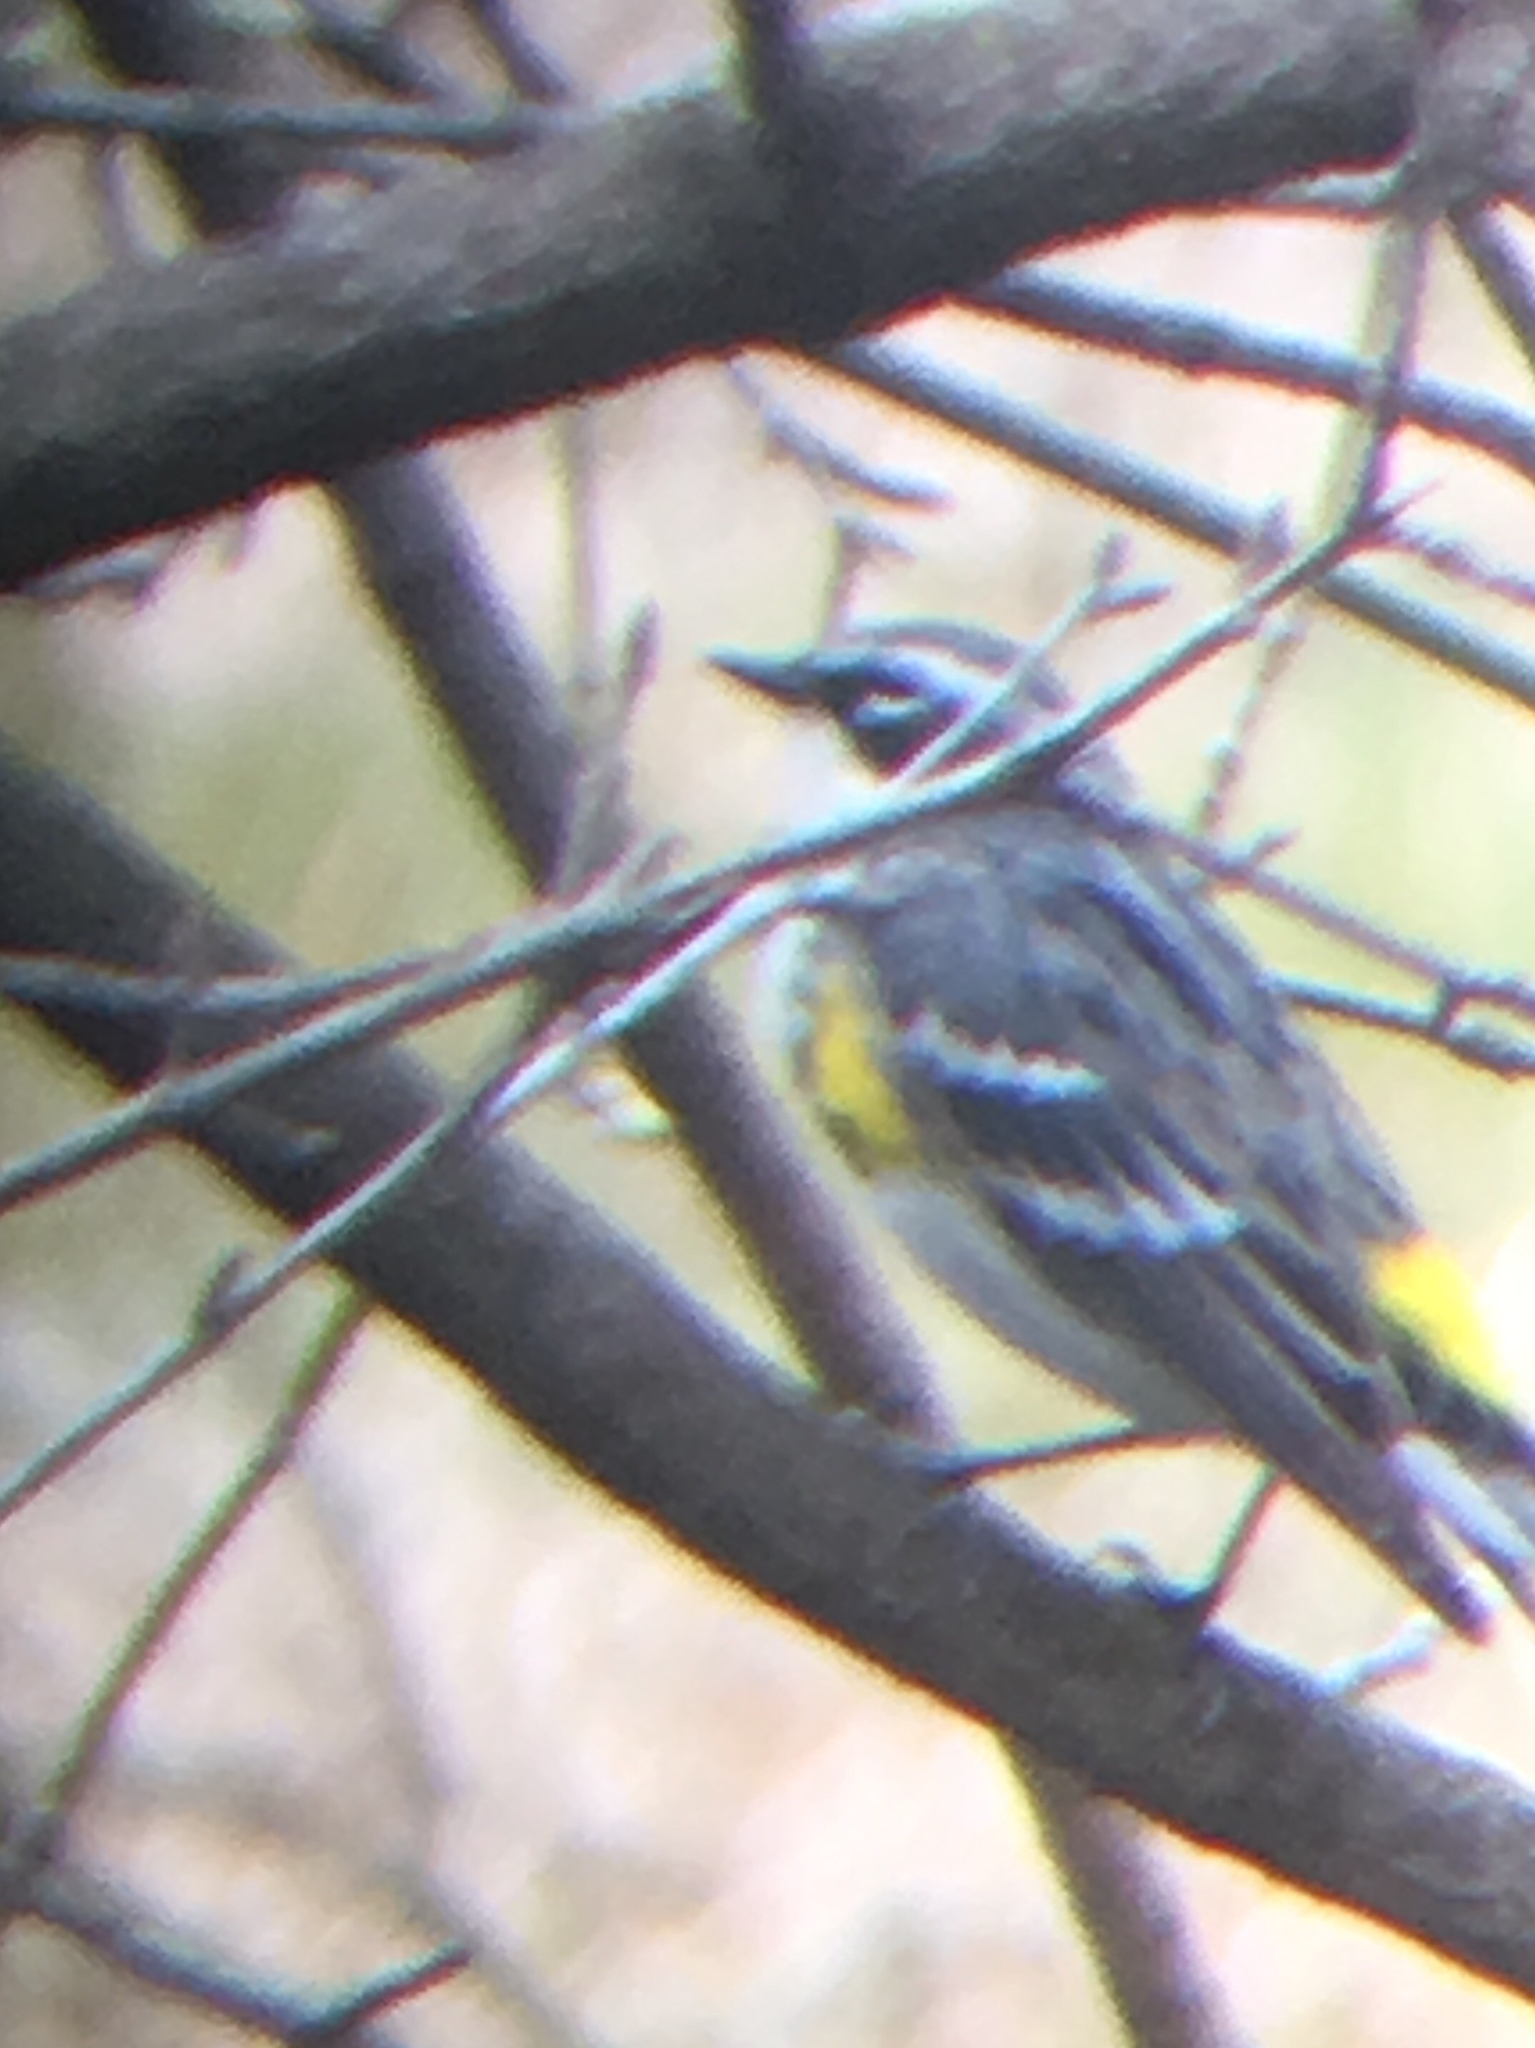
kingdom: Animalia
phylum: Chordata
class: Aves
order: Passeriformes
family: Parulidae
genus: Setophaga
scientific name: Setophaga coronata
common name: Myrtle warbler
